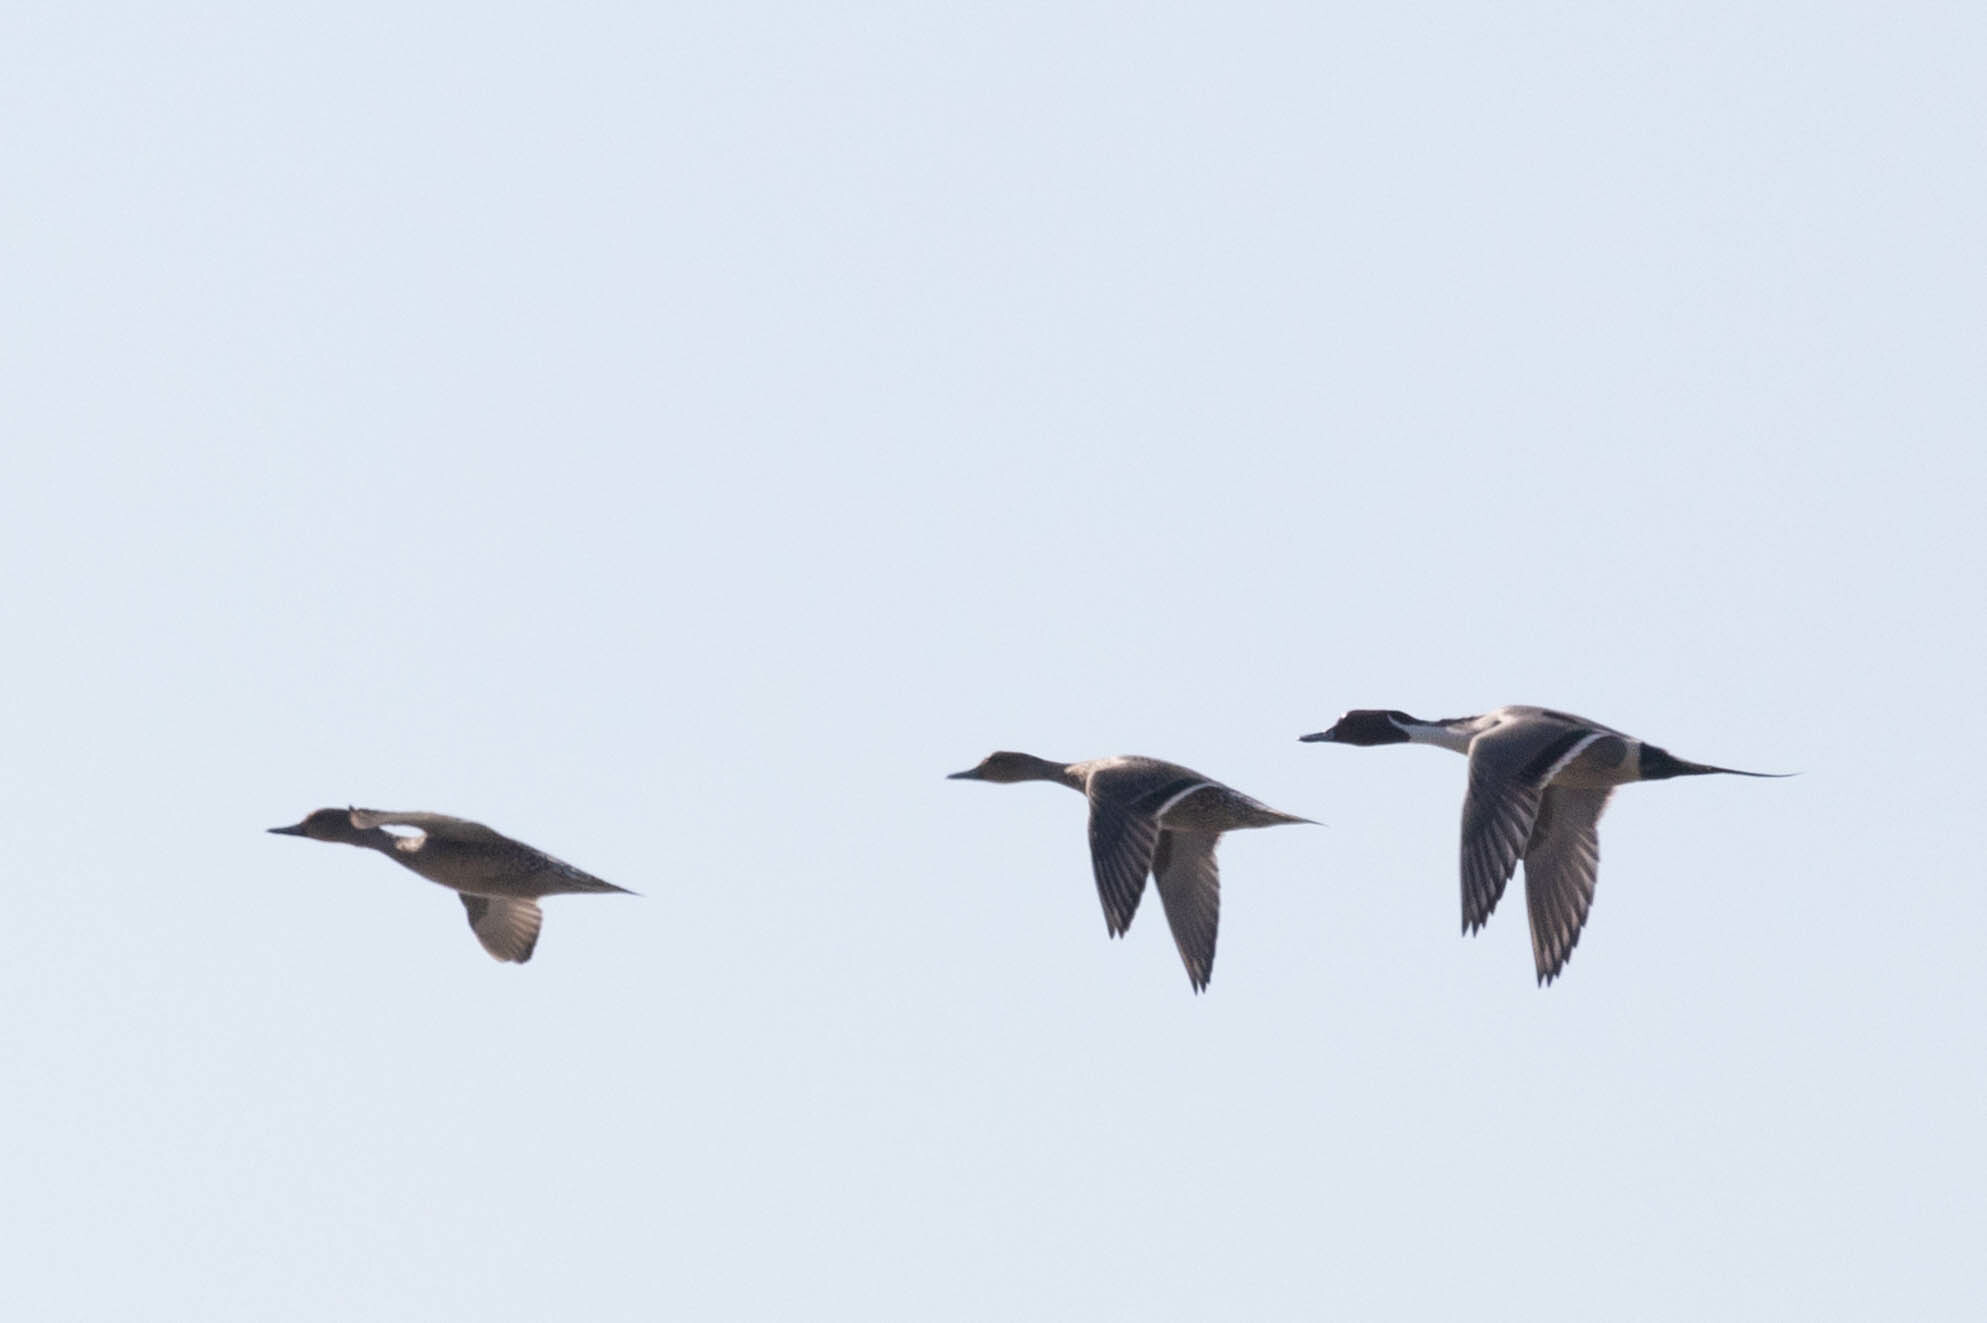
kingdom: Animalia
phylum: Chordata
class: Aves
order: Anseriformes
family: Anatidae
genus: Anas
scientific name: Anas acuta
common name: Northern pintail
